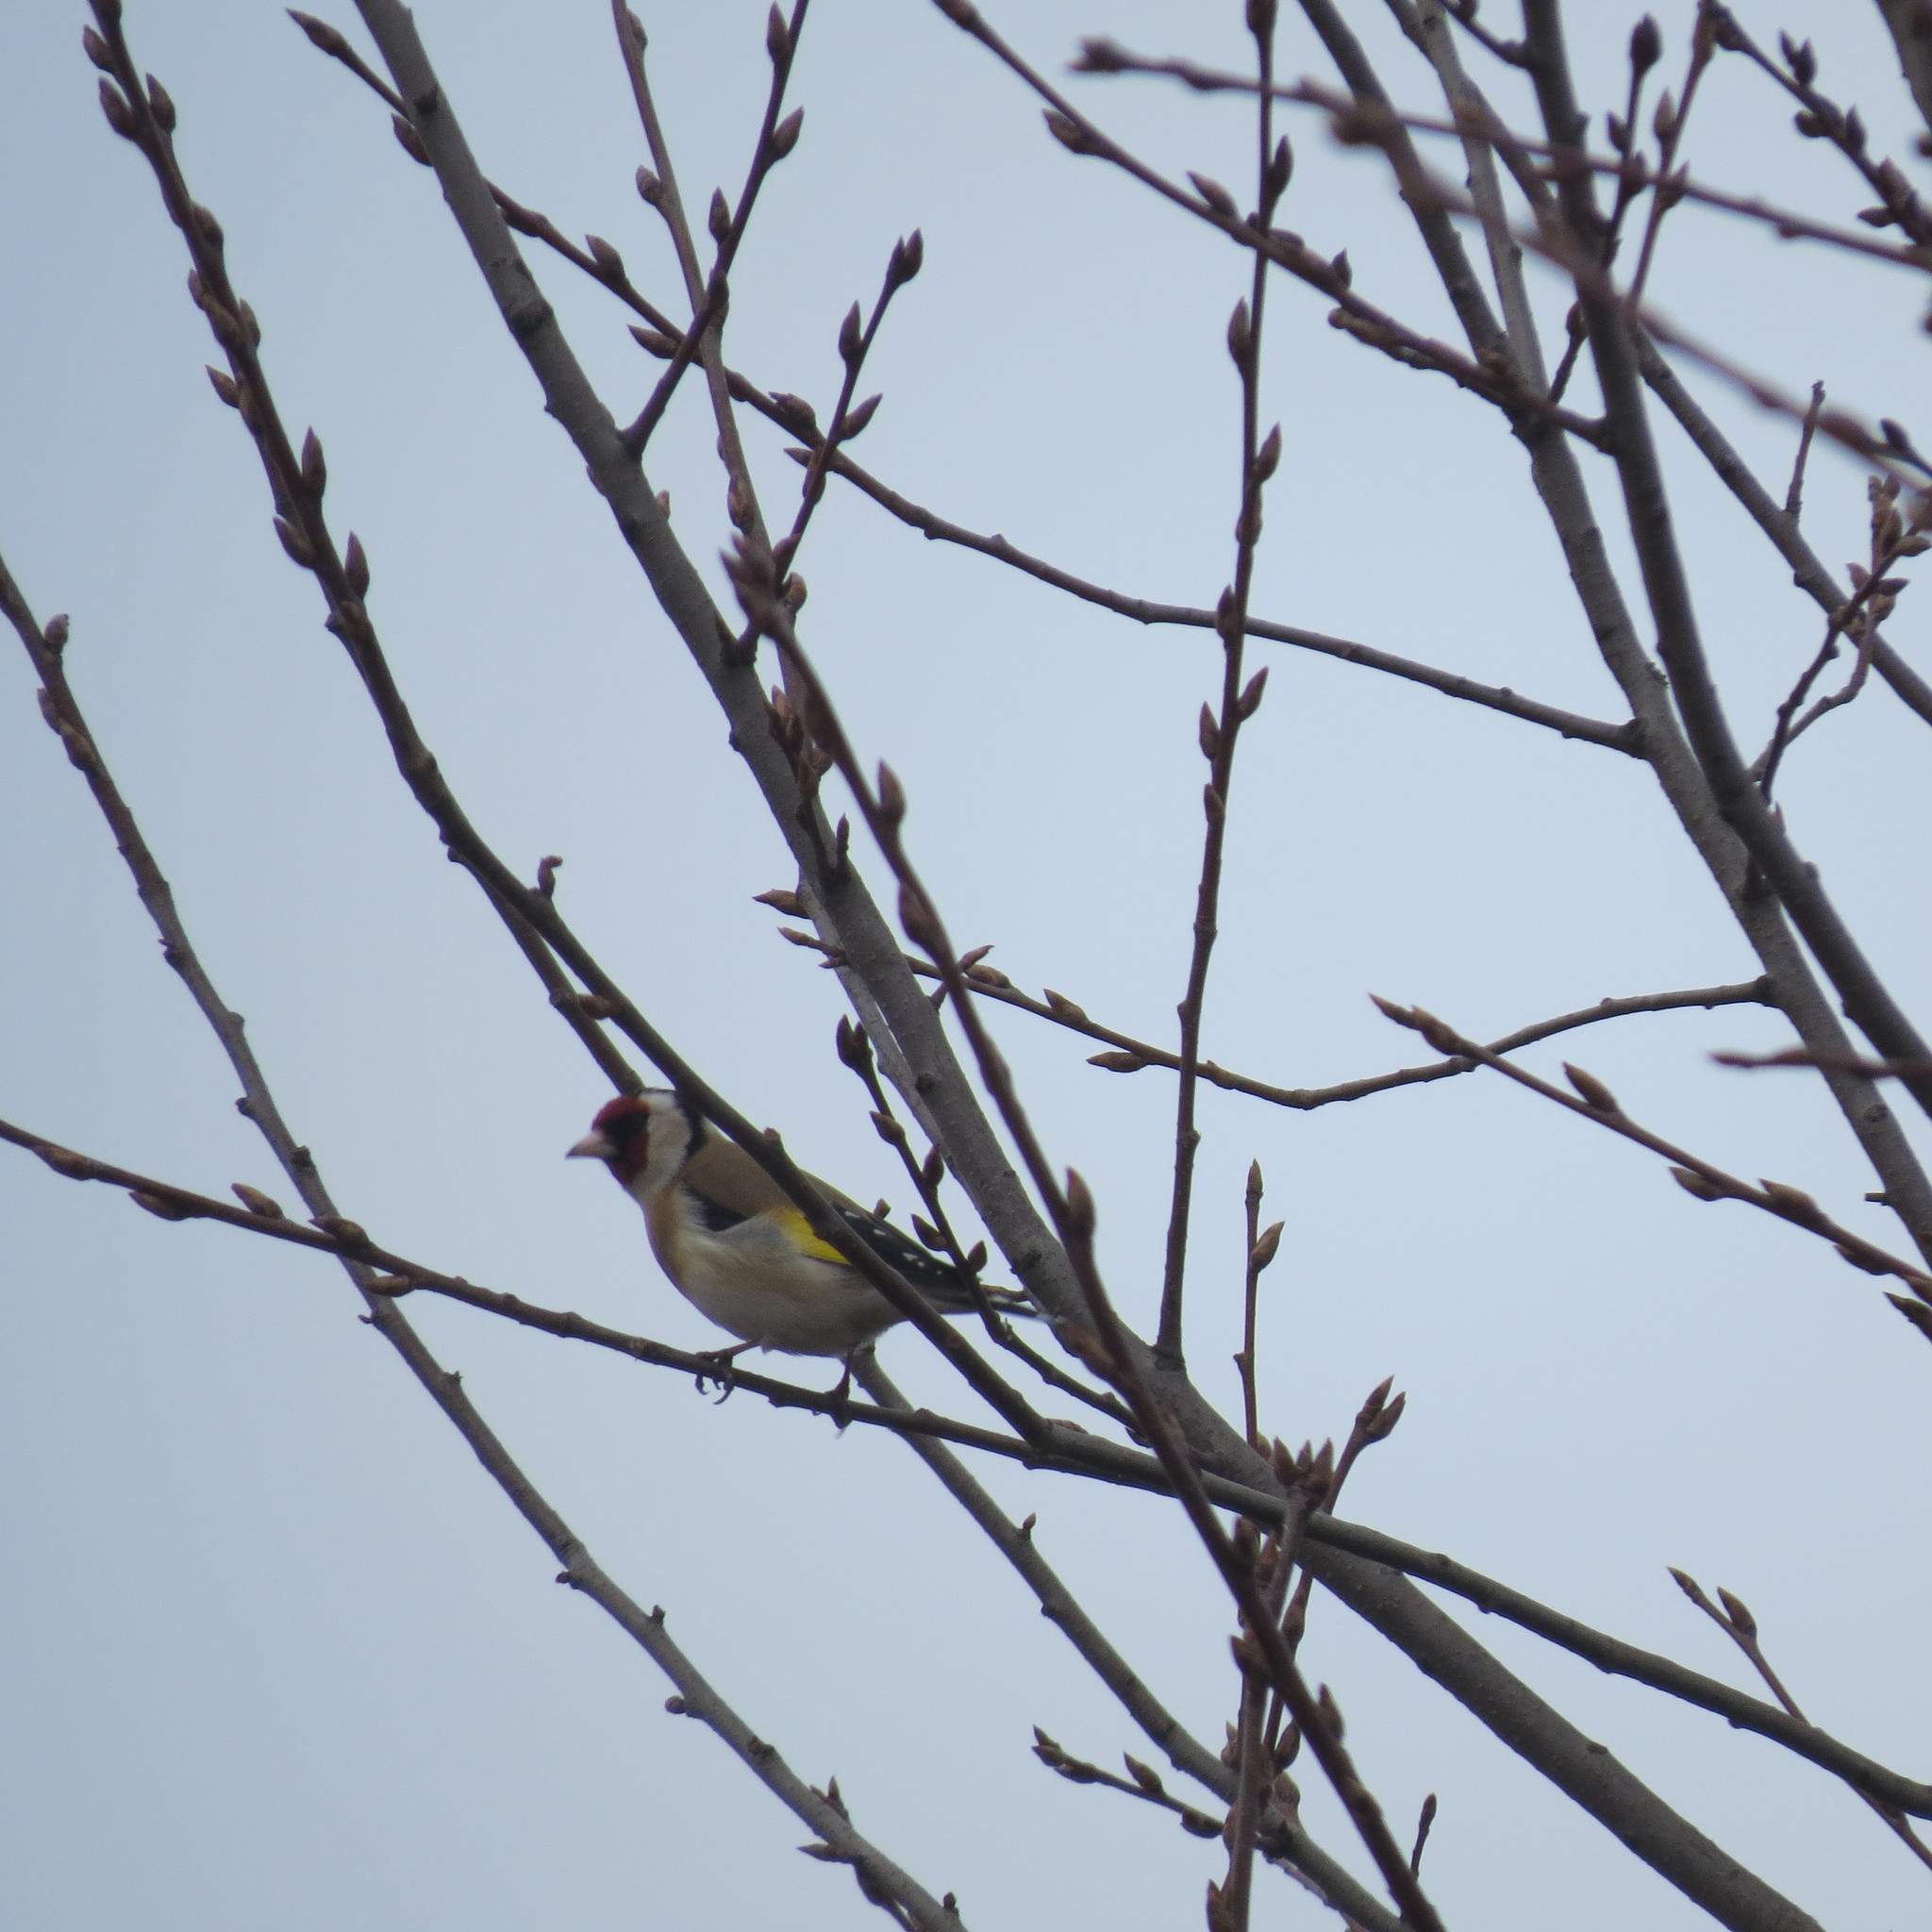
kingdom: Animalia
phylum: Chordata
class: Aves
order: Passeriformes
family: Fringillidae
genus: Carduelis
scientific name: Carduelis carduelis
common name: European goldfinch
